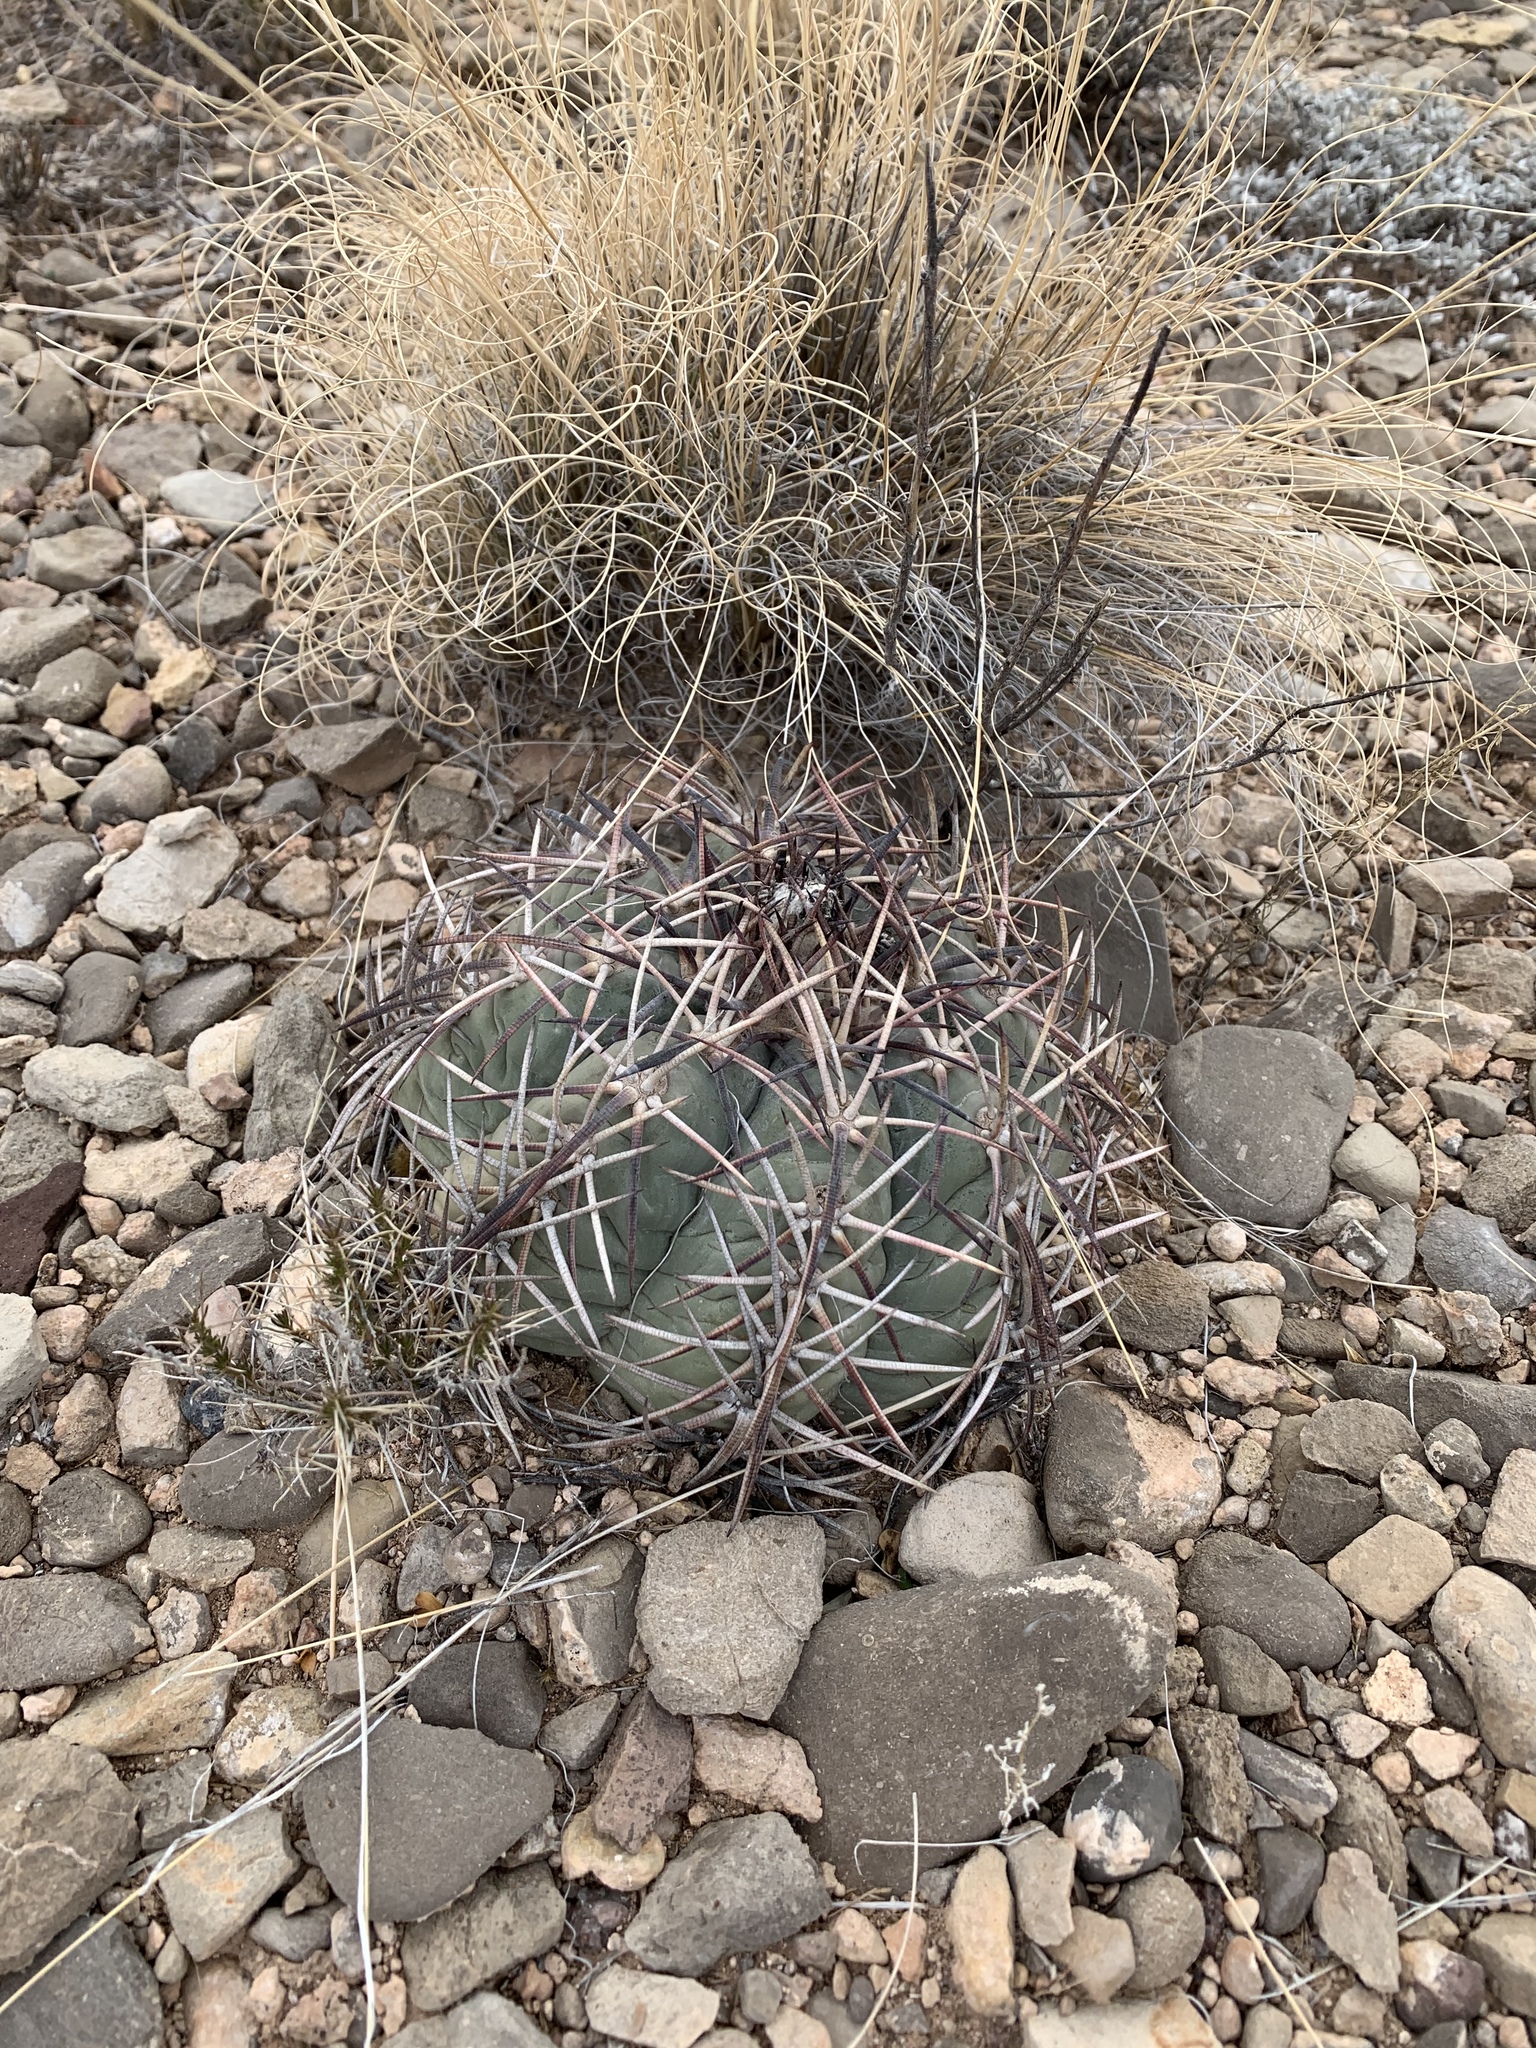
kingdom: Plantae
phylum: Tracheophyta
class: Magnoliopsida
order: Caryophyllales
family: Cactaceae
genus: Echinocactus
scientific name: Echinocactus horizonthalonius
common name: Devilshead
